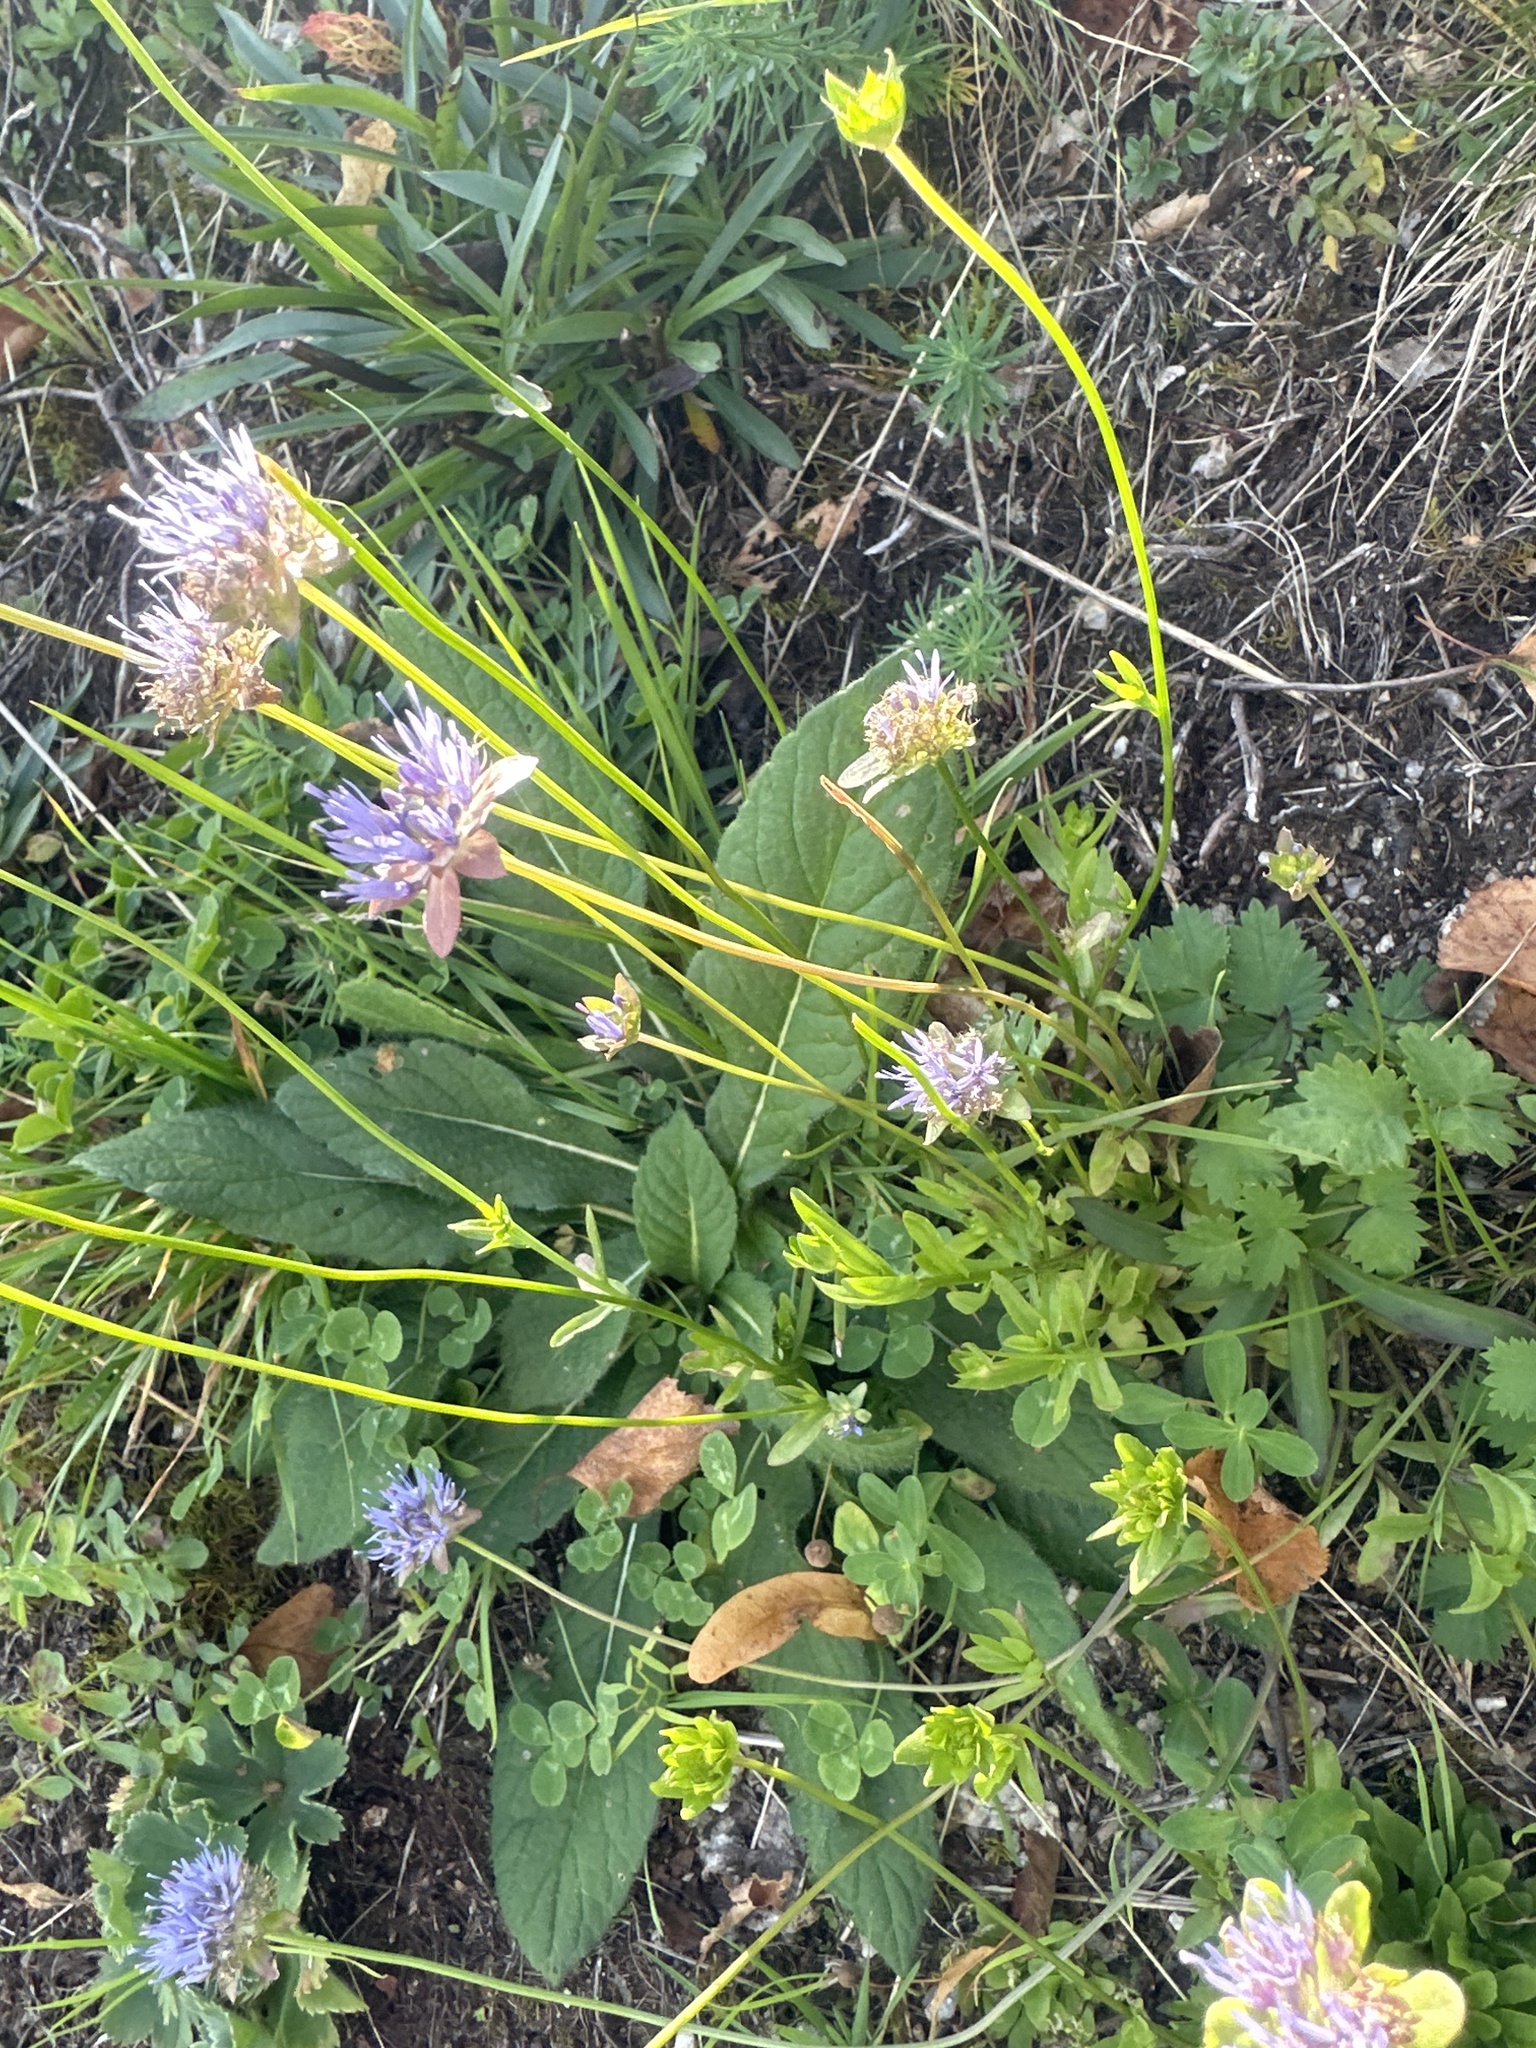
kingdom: Plantae
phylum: Tracheophyta
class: Magnoliopsida
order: Asterales
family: Campanulaceae
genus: Jasione
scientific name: Jasione montana
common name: Sheep's-bit
